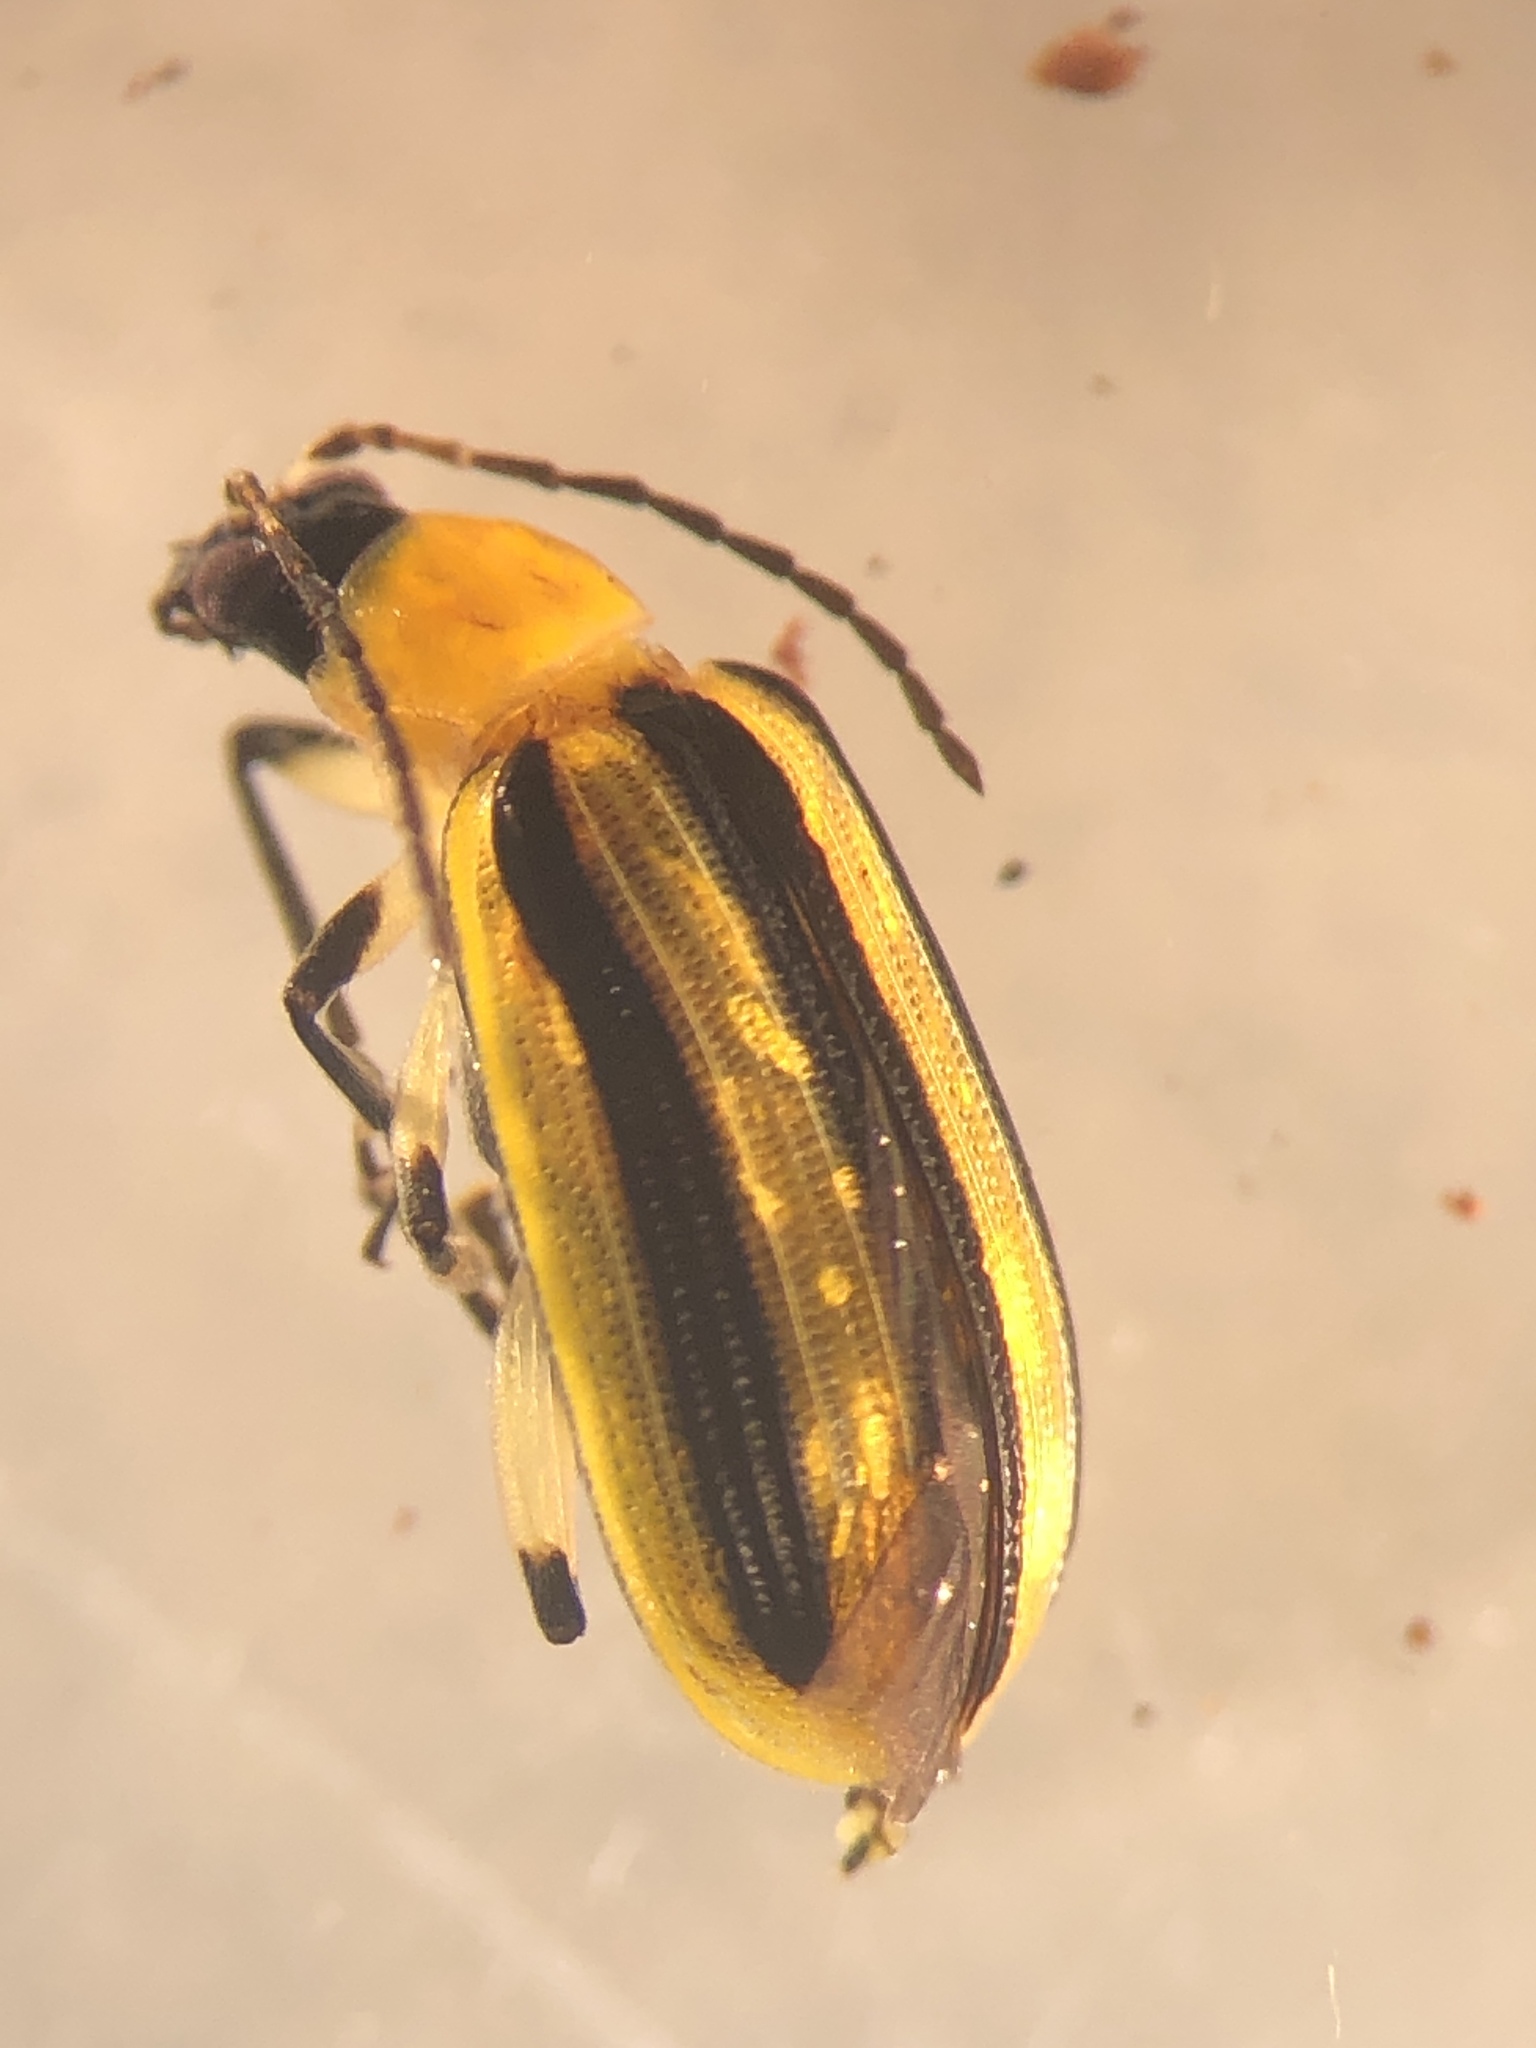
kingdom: Animalia
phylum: Arthropoda
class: Insecta
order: Coleoptera
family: Chrysomelidae
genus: Acalymma
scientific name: Acalymma vittatum
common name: Striped cucumber beetle
